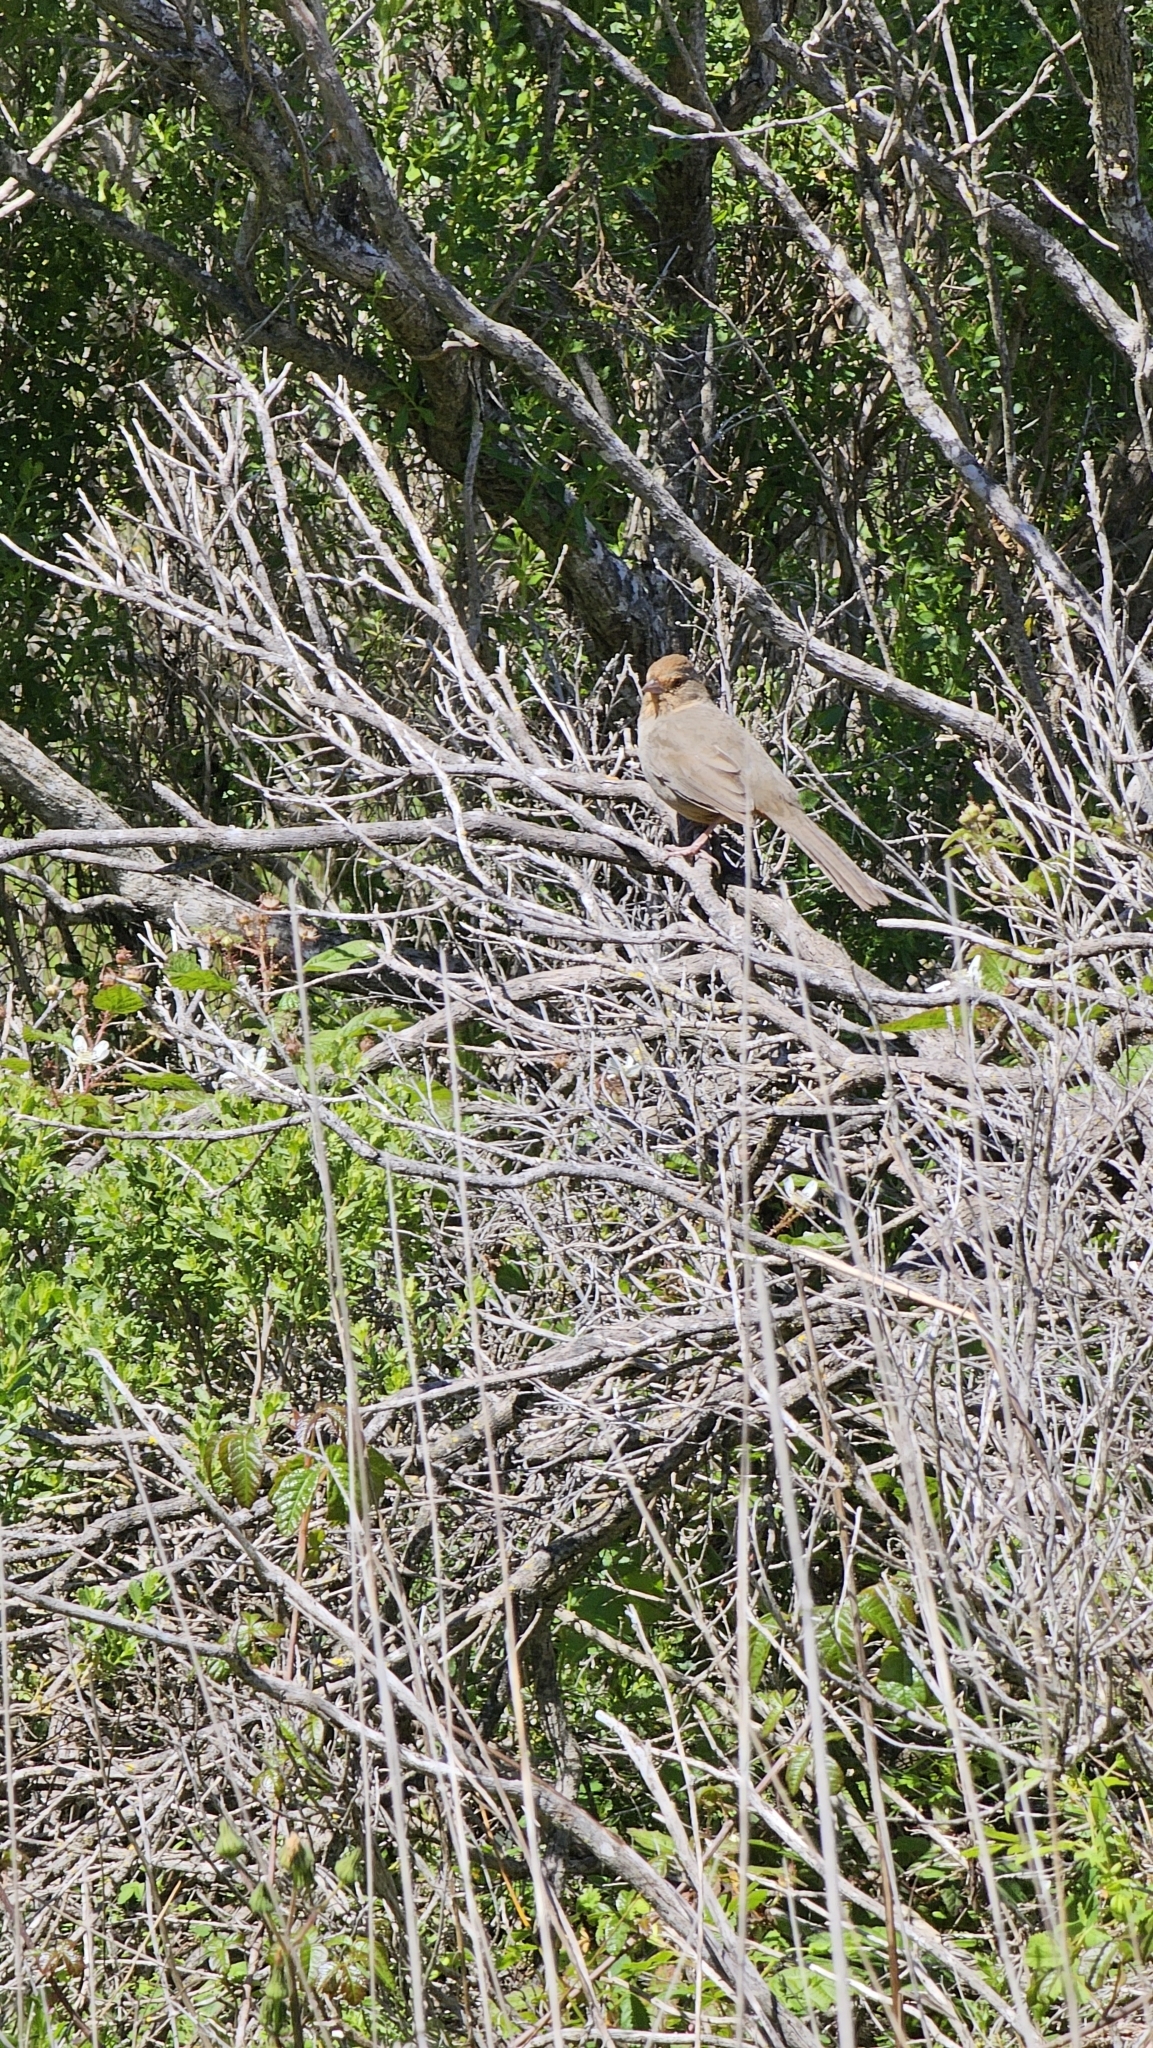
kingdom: Animalia
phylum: Chordata
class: Aves
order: Passeriformes
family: Passerellidae
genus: Melozone
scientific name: Melozone crissalis
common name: California towhee
